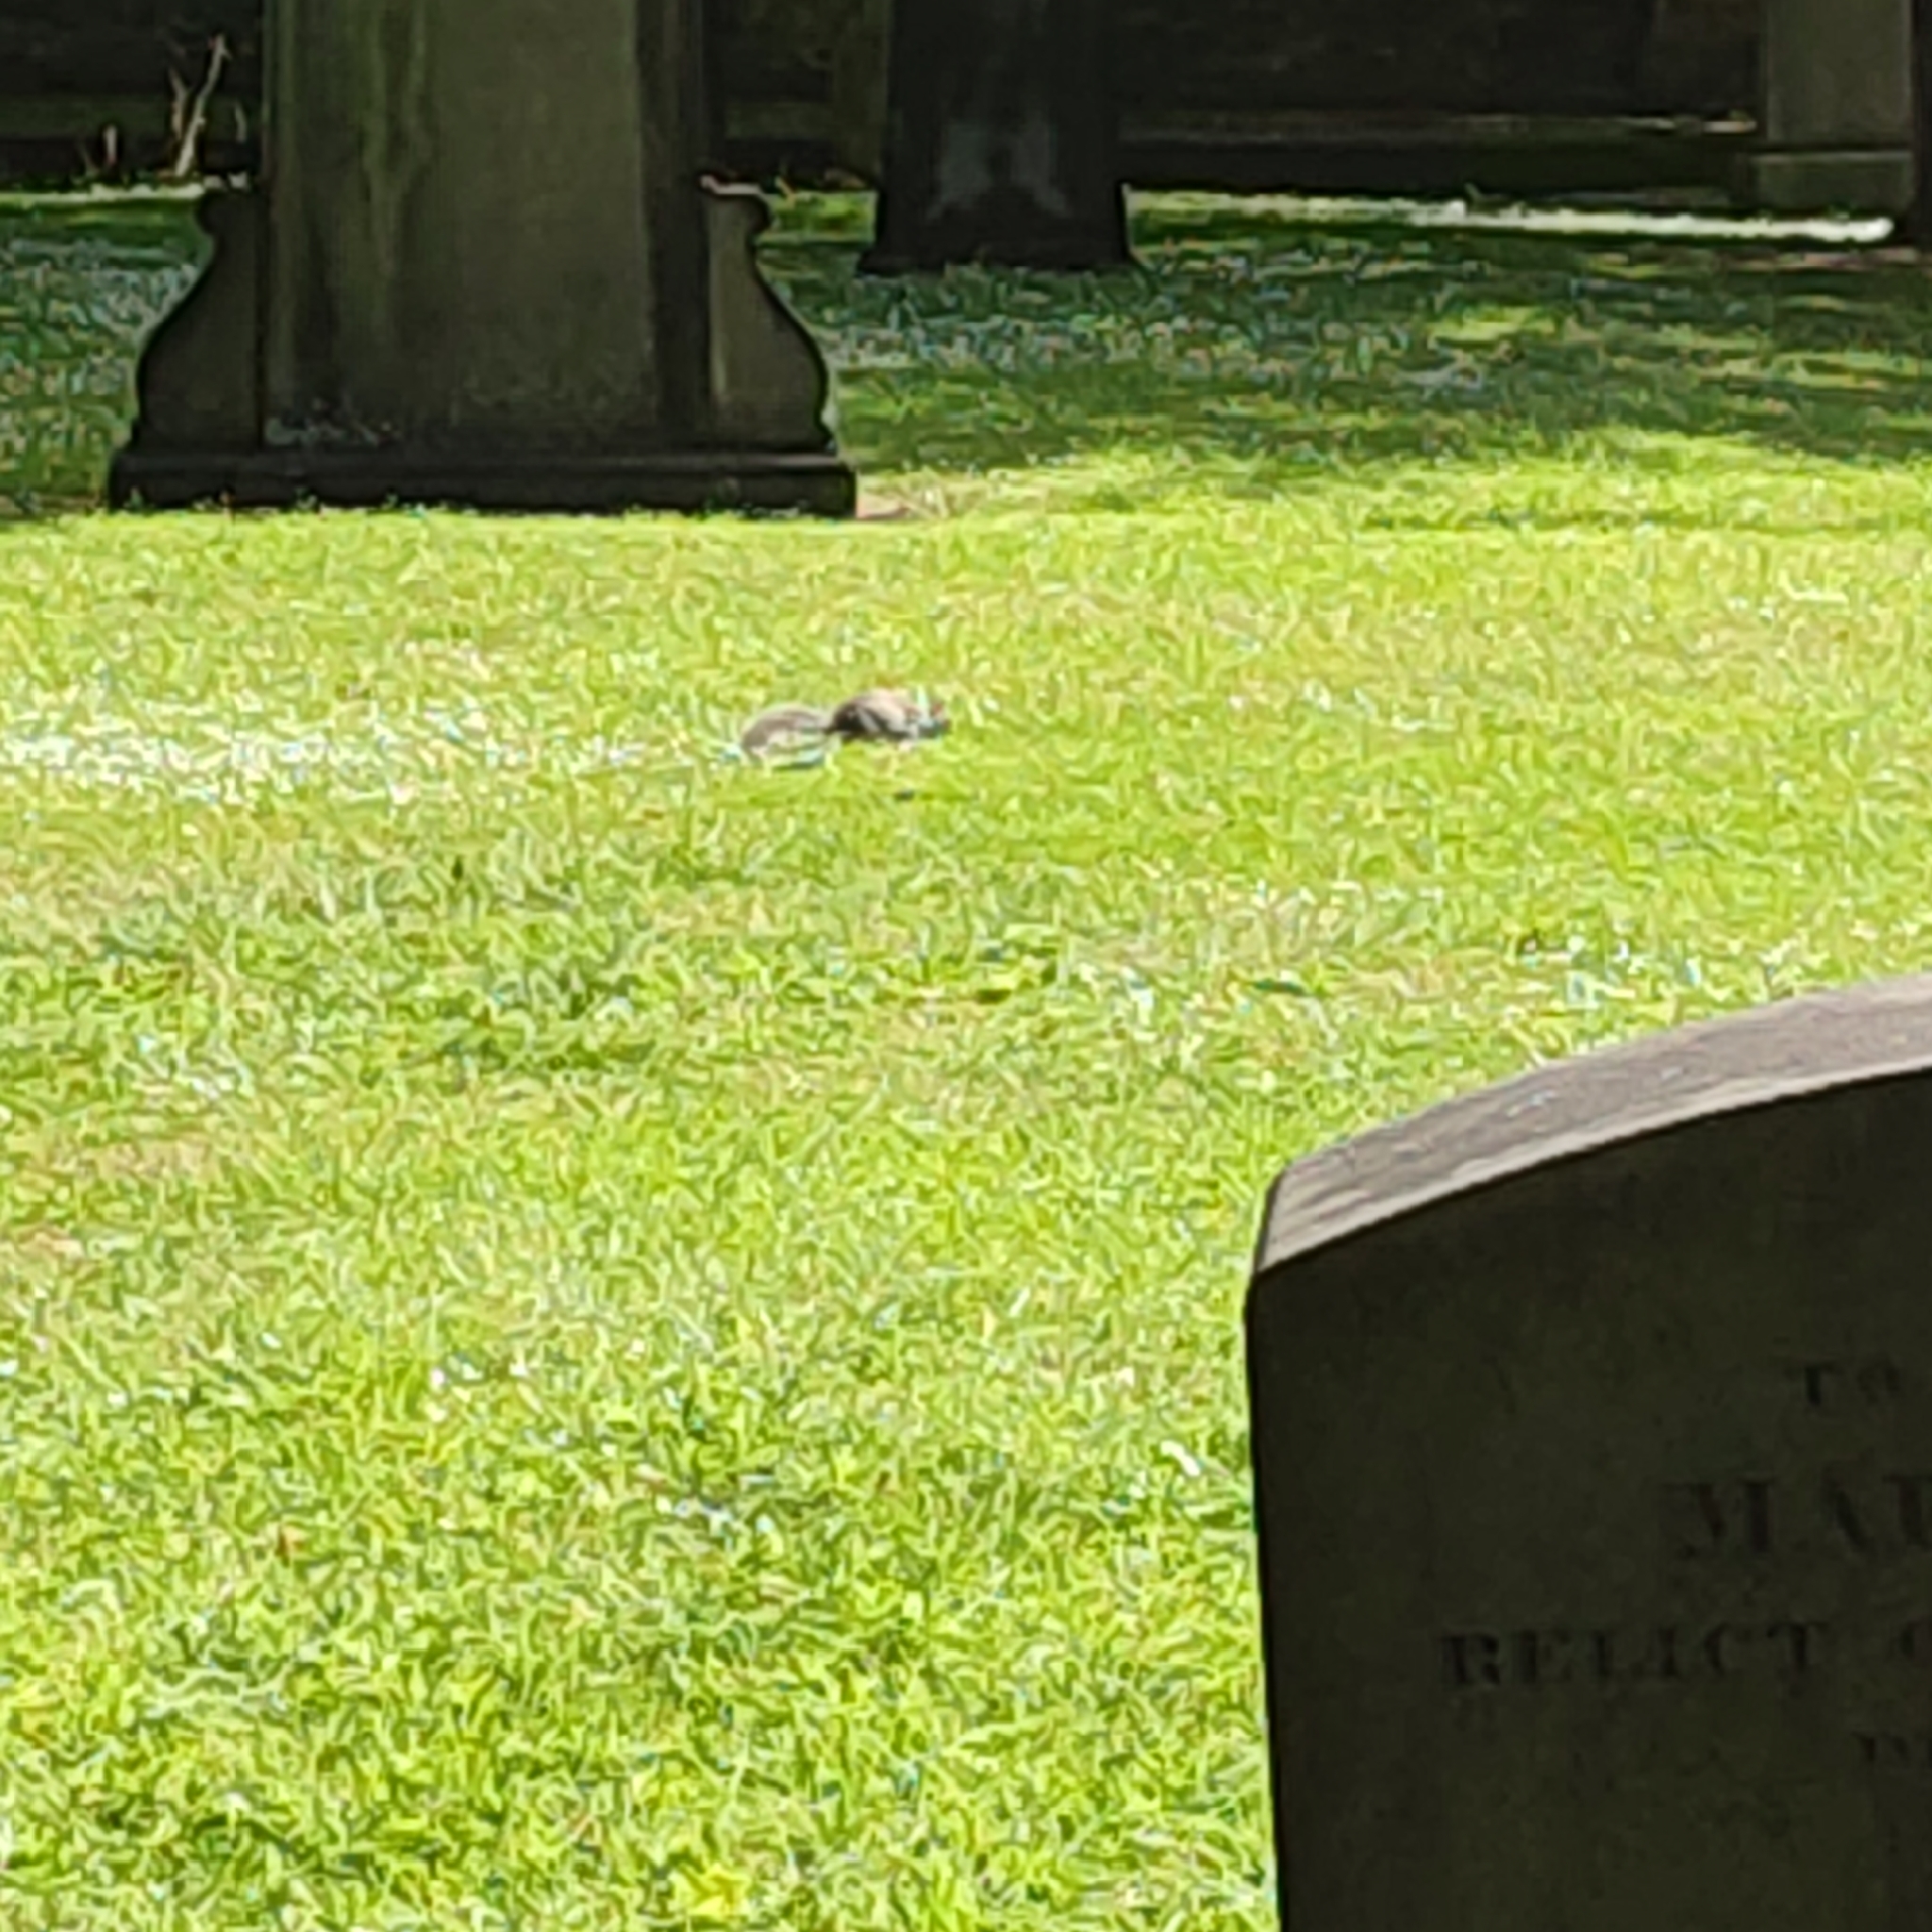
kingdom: Animalia
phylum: Chordata
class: Mammalia
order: Rodentia
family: Sciuridae
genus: Sciurus
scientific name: Sciurus carolinensis
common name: Eastern gray squirrel
